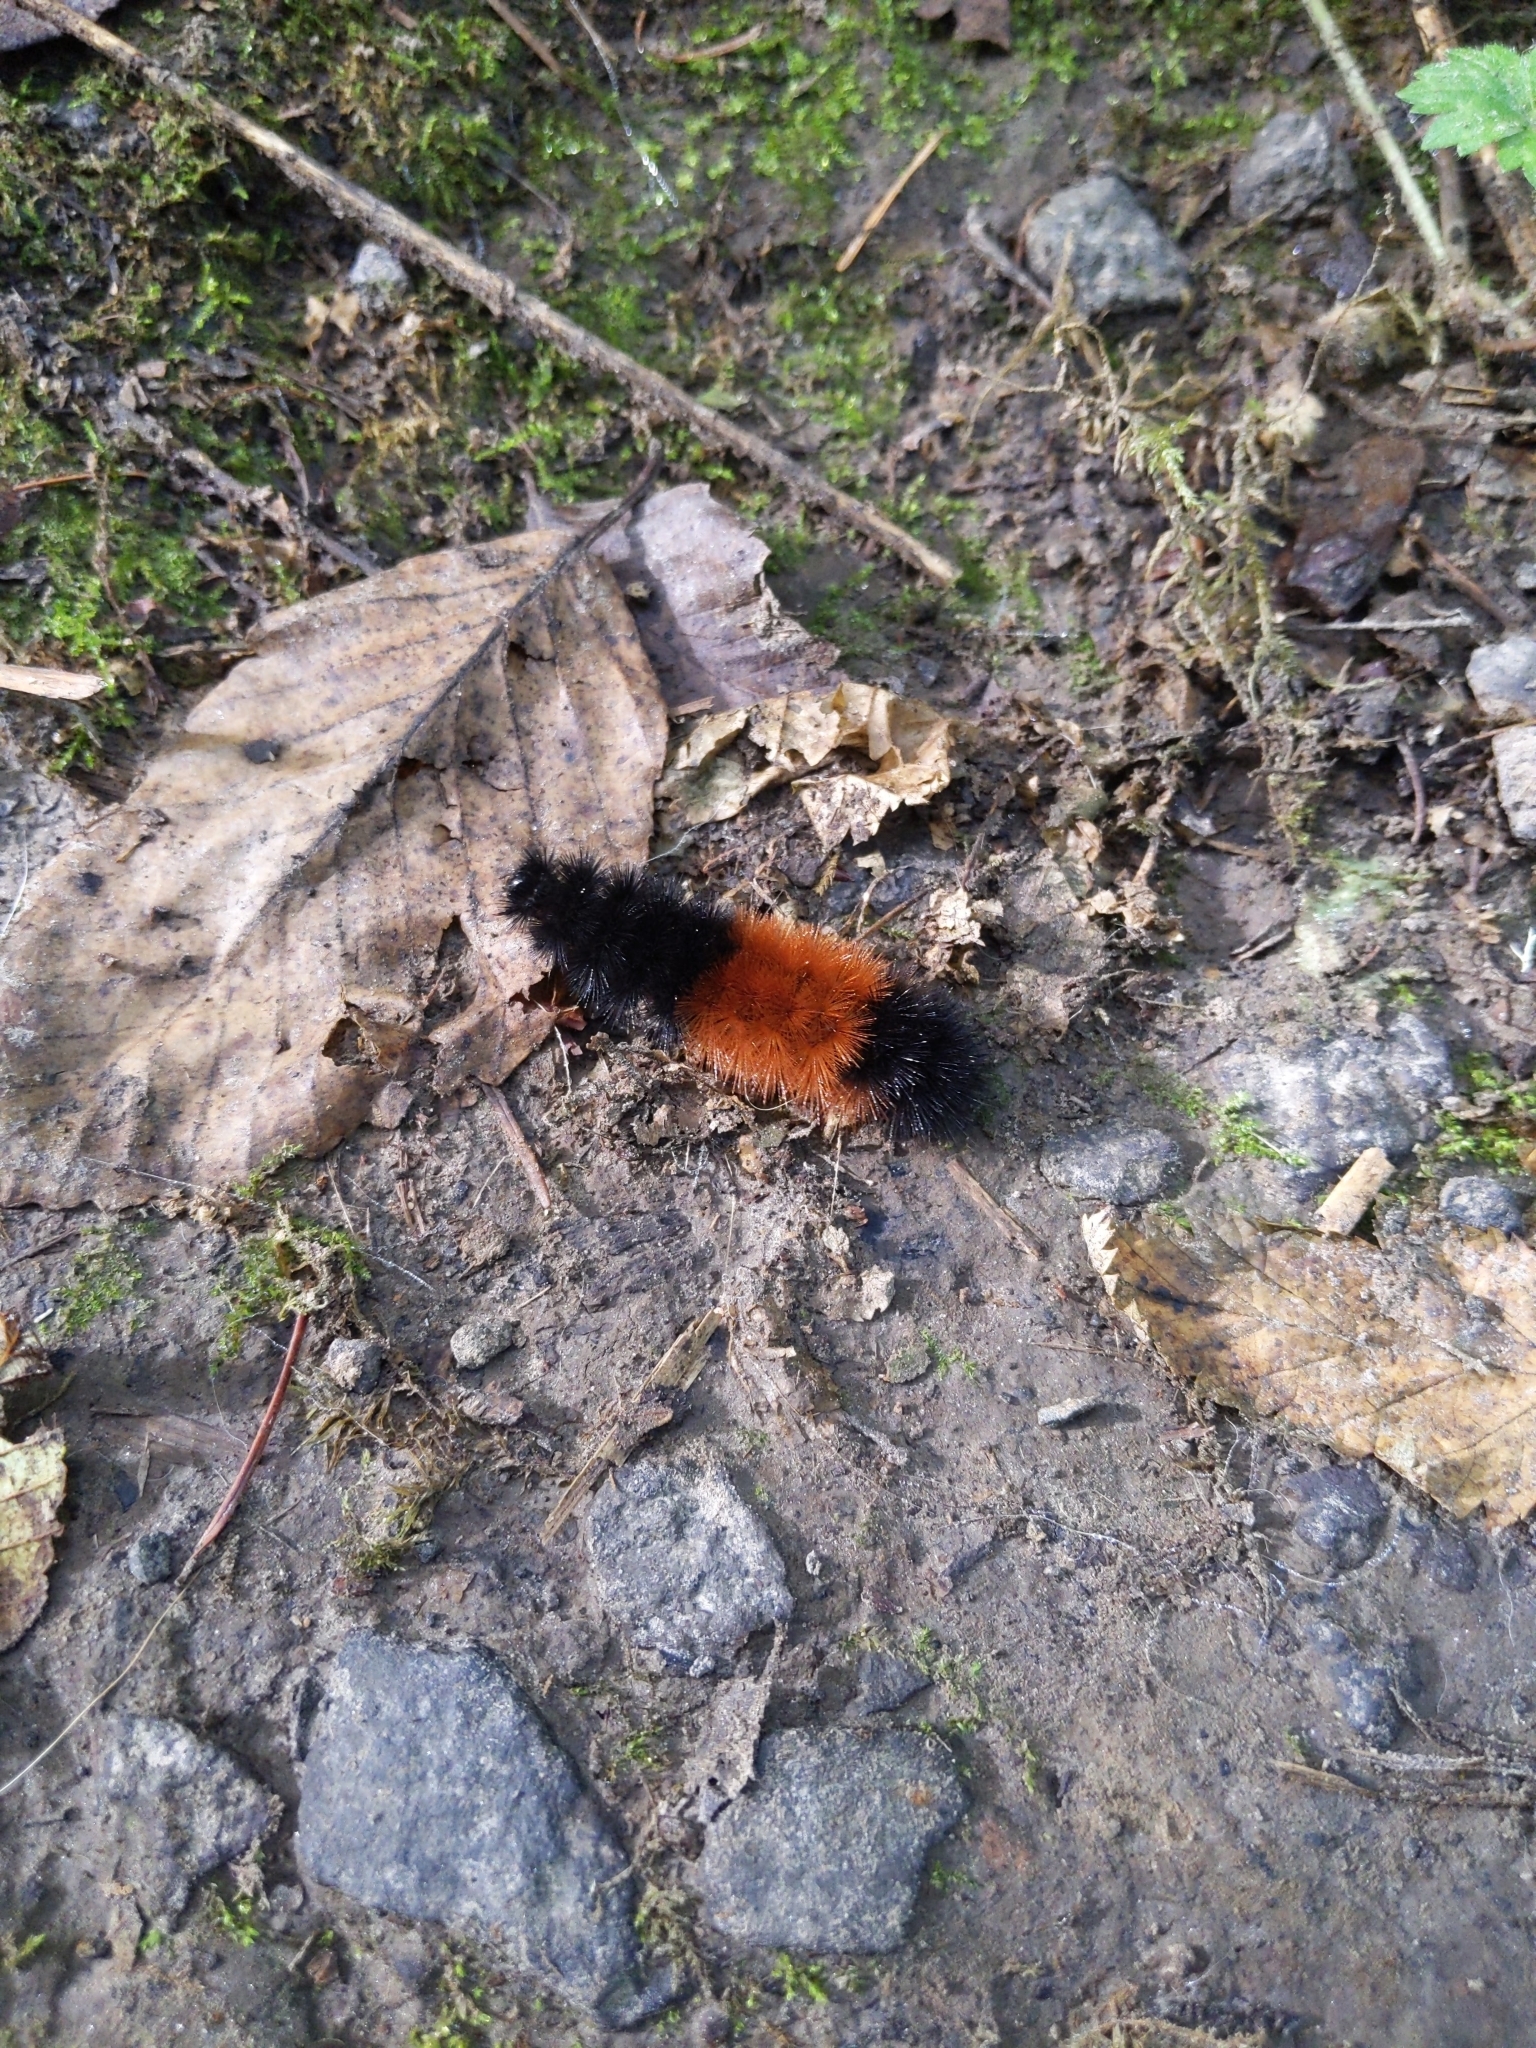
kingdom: Animalia
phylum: Arthropoda
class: Insecta
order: Lepidoptera
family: Erebidae
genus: Pyrrharctia
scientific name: Pyrrharctia isabella
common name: Isabella tiger moth
